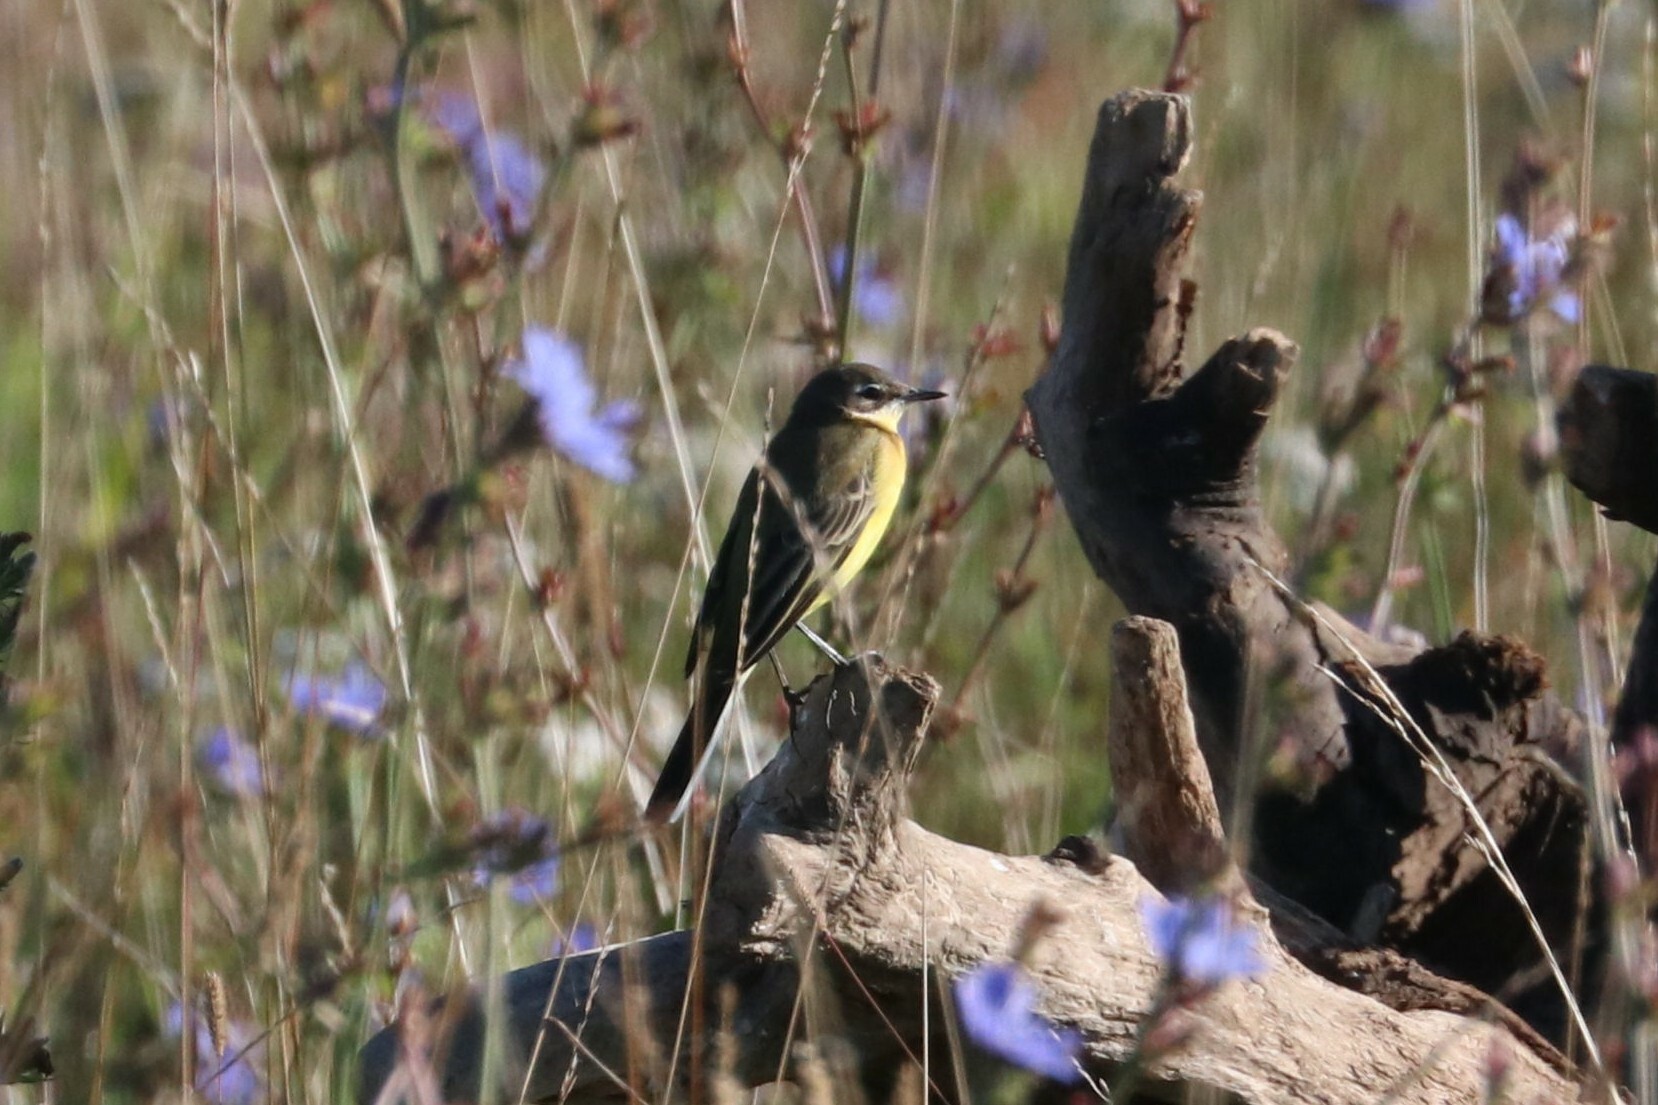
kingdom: Animalia
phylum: Chordata
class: Aves
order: Passeriformes
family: Motacillidae
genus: Motacilla
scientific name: Motacilla flava
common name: Western yellow wagtail
